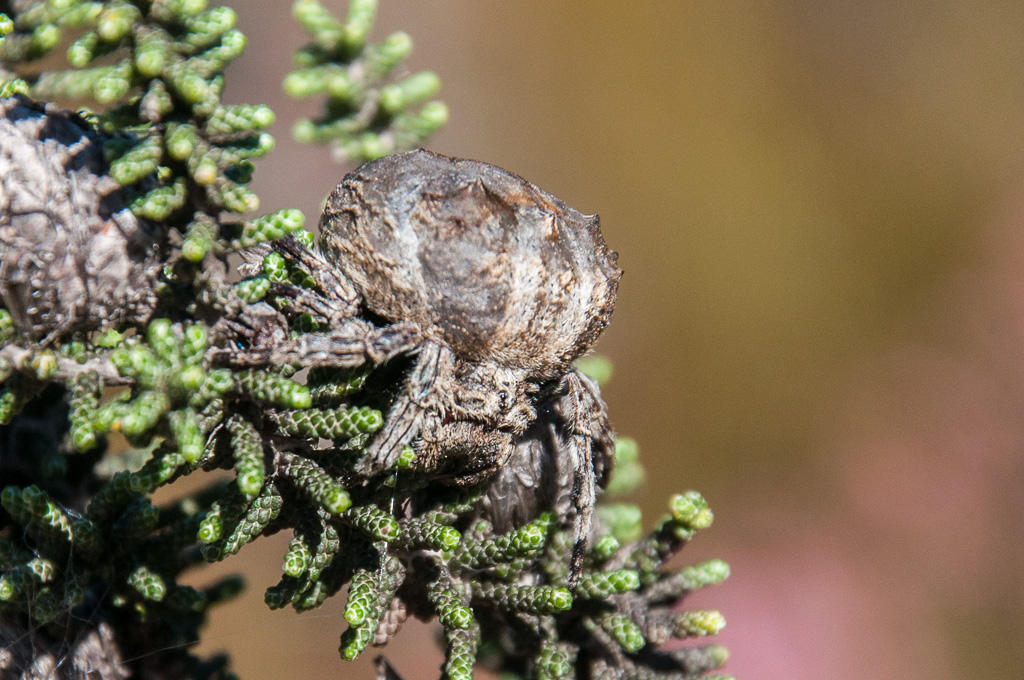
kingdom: Animalia
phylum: Arthropoda
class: Arachnida
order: Araneae
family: Araneidae
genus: Caerostris
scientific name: Caerostris corticosa
